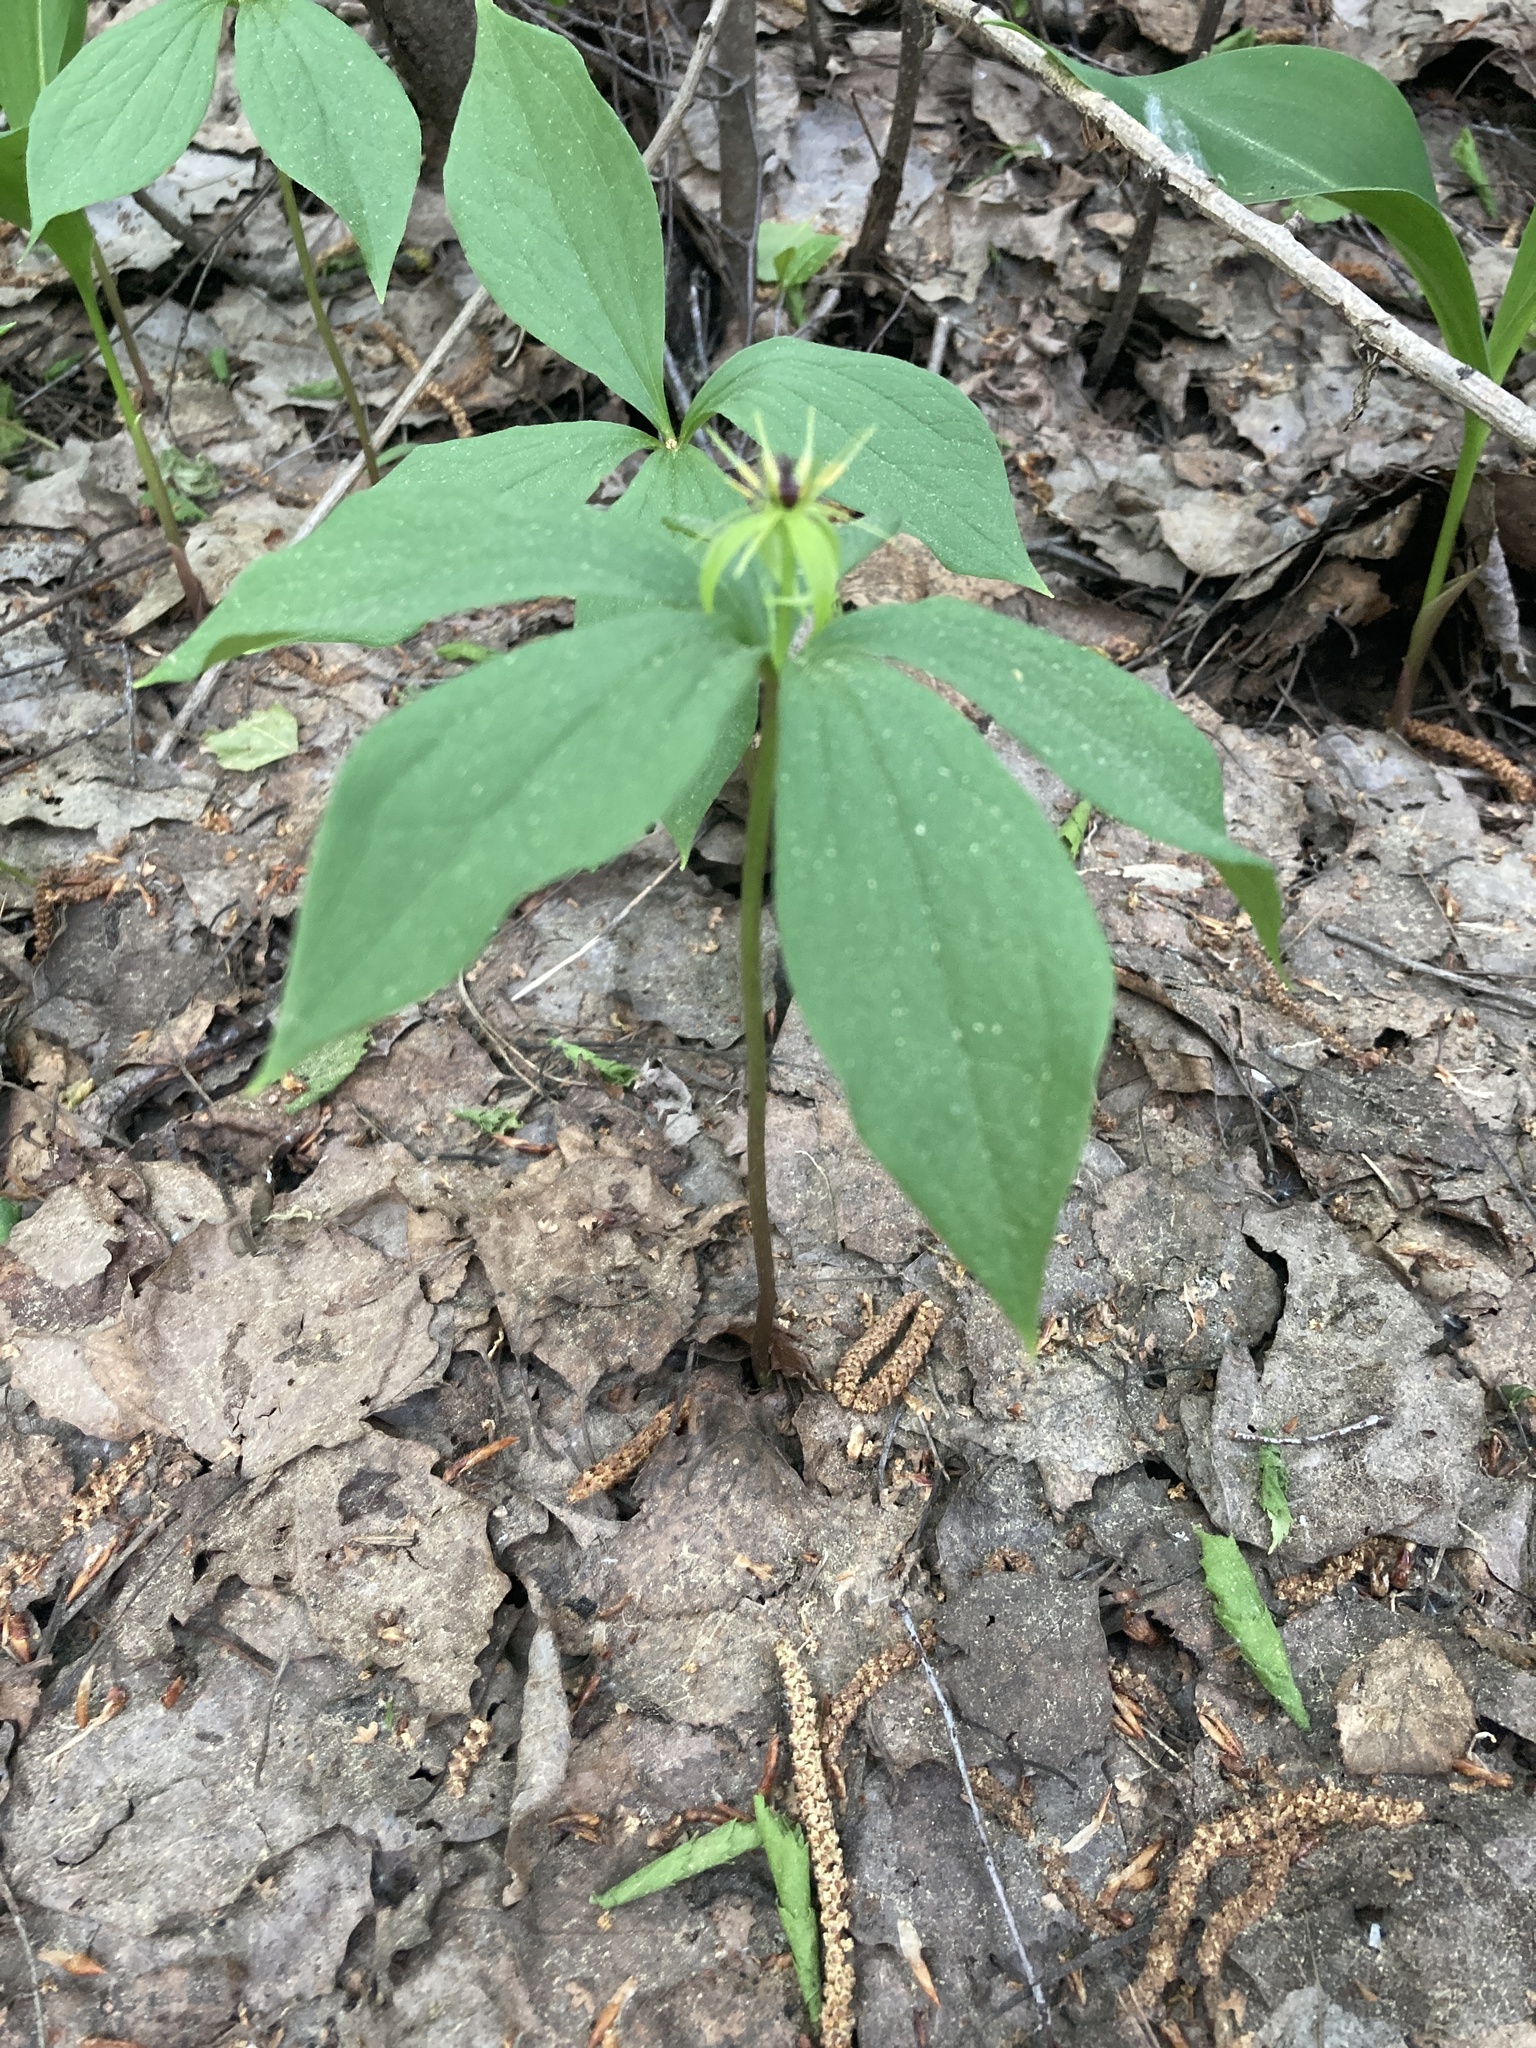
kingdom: Plantae
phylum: Tracheophyta
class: Liliopsida
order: Liliales
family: Melanthiaceae
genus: Paris
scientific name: Paris quadrifolia
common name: Herb-paris
